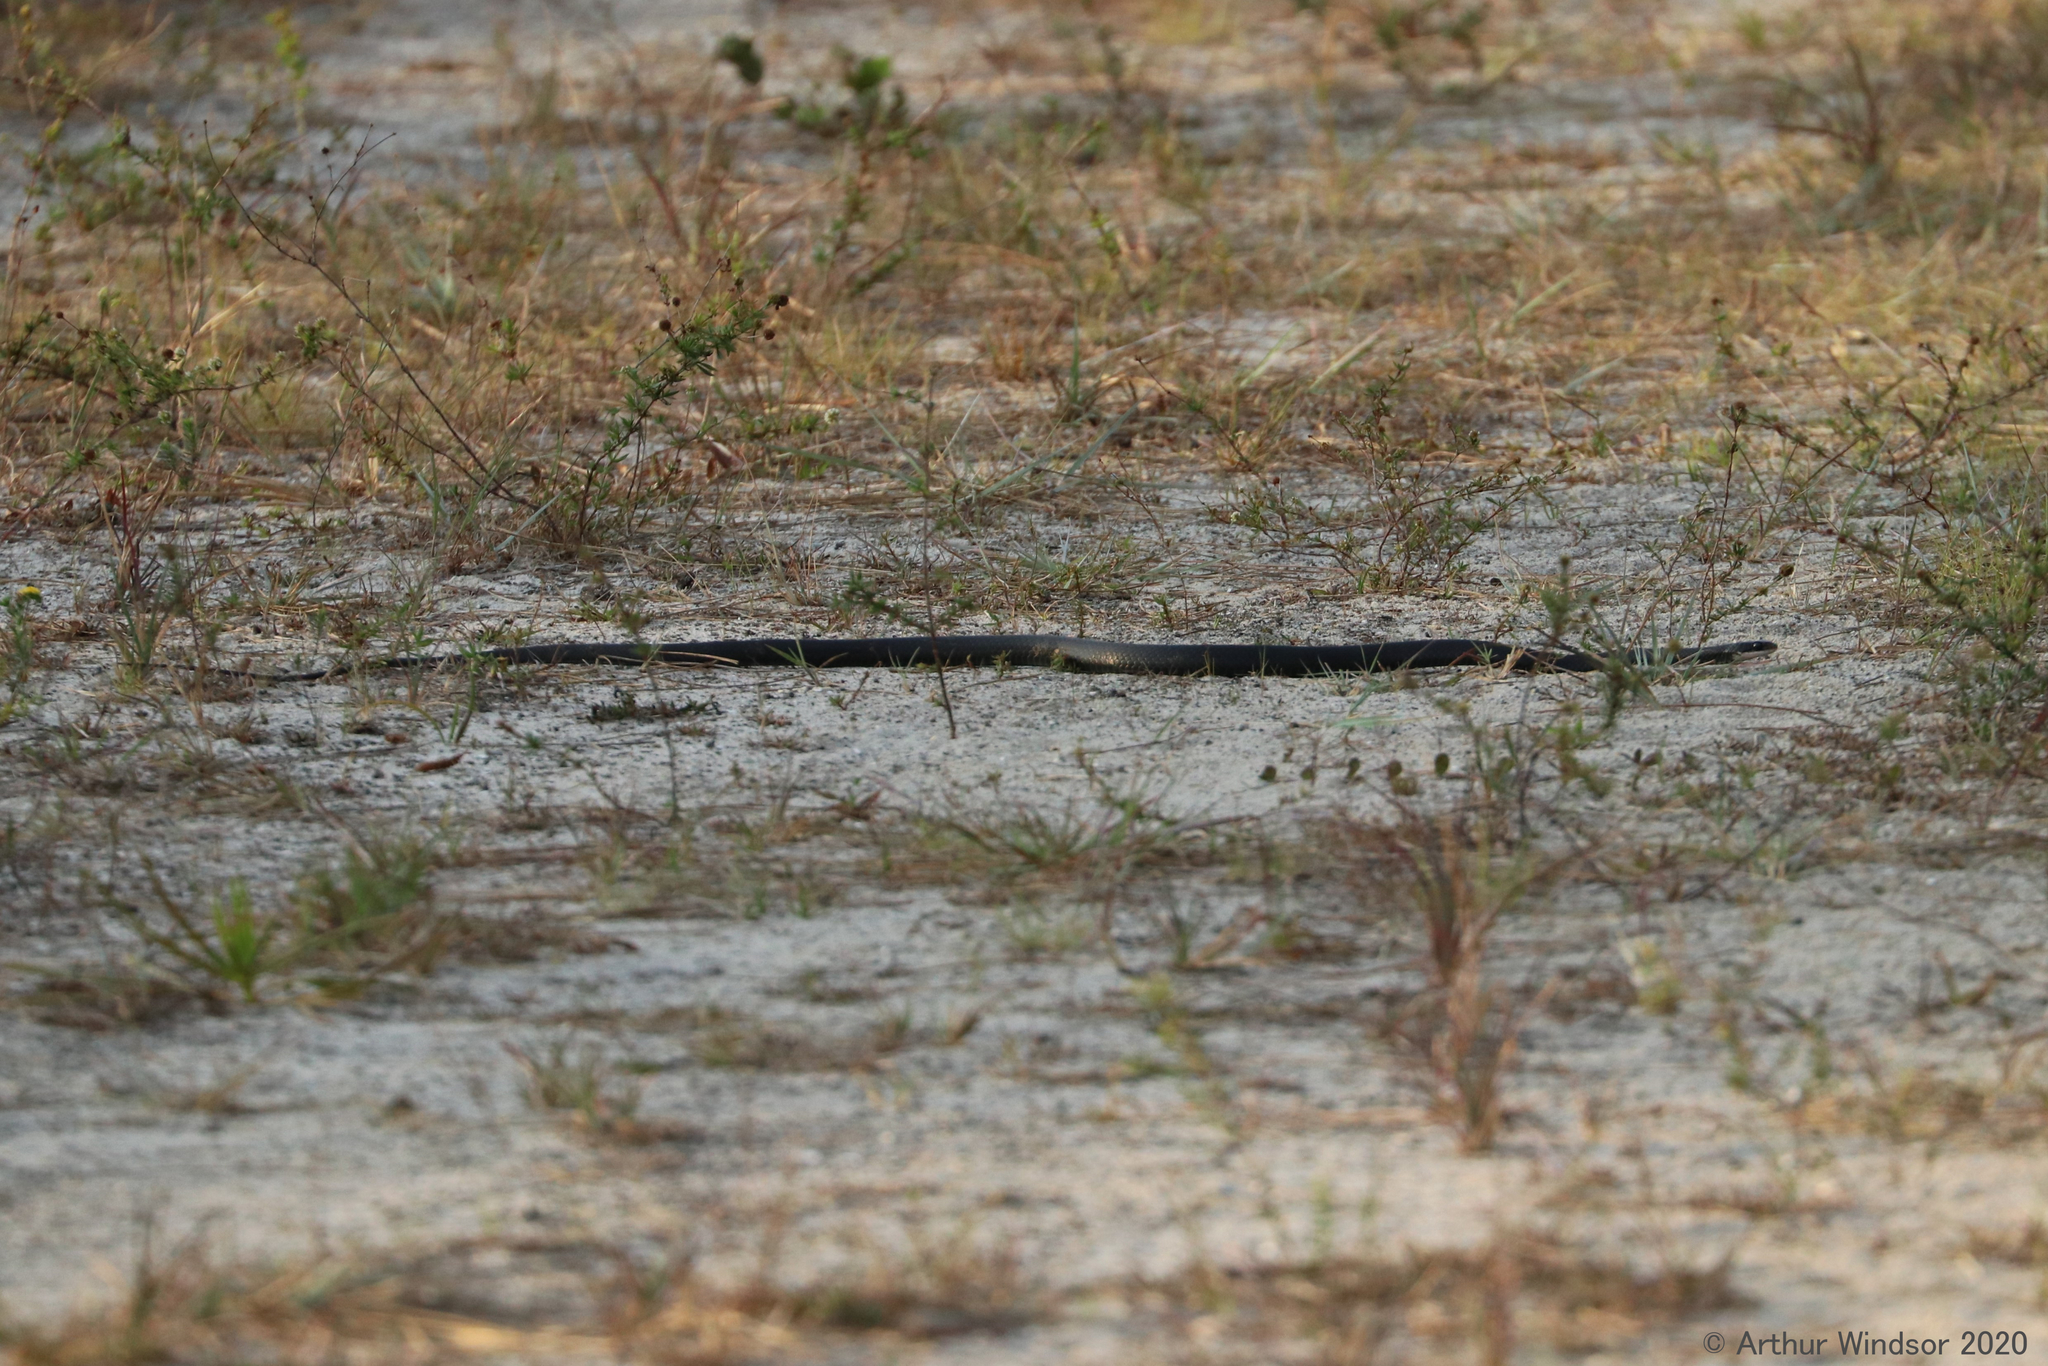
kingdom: Animalia
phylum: Chordata
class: Squamata
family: Colubridae
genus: Coluber
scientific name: Coluber constrictor
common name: Eastern racer
